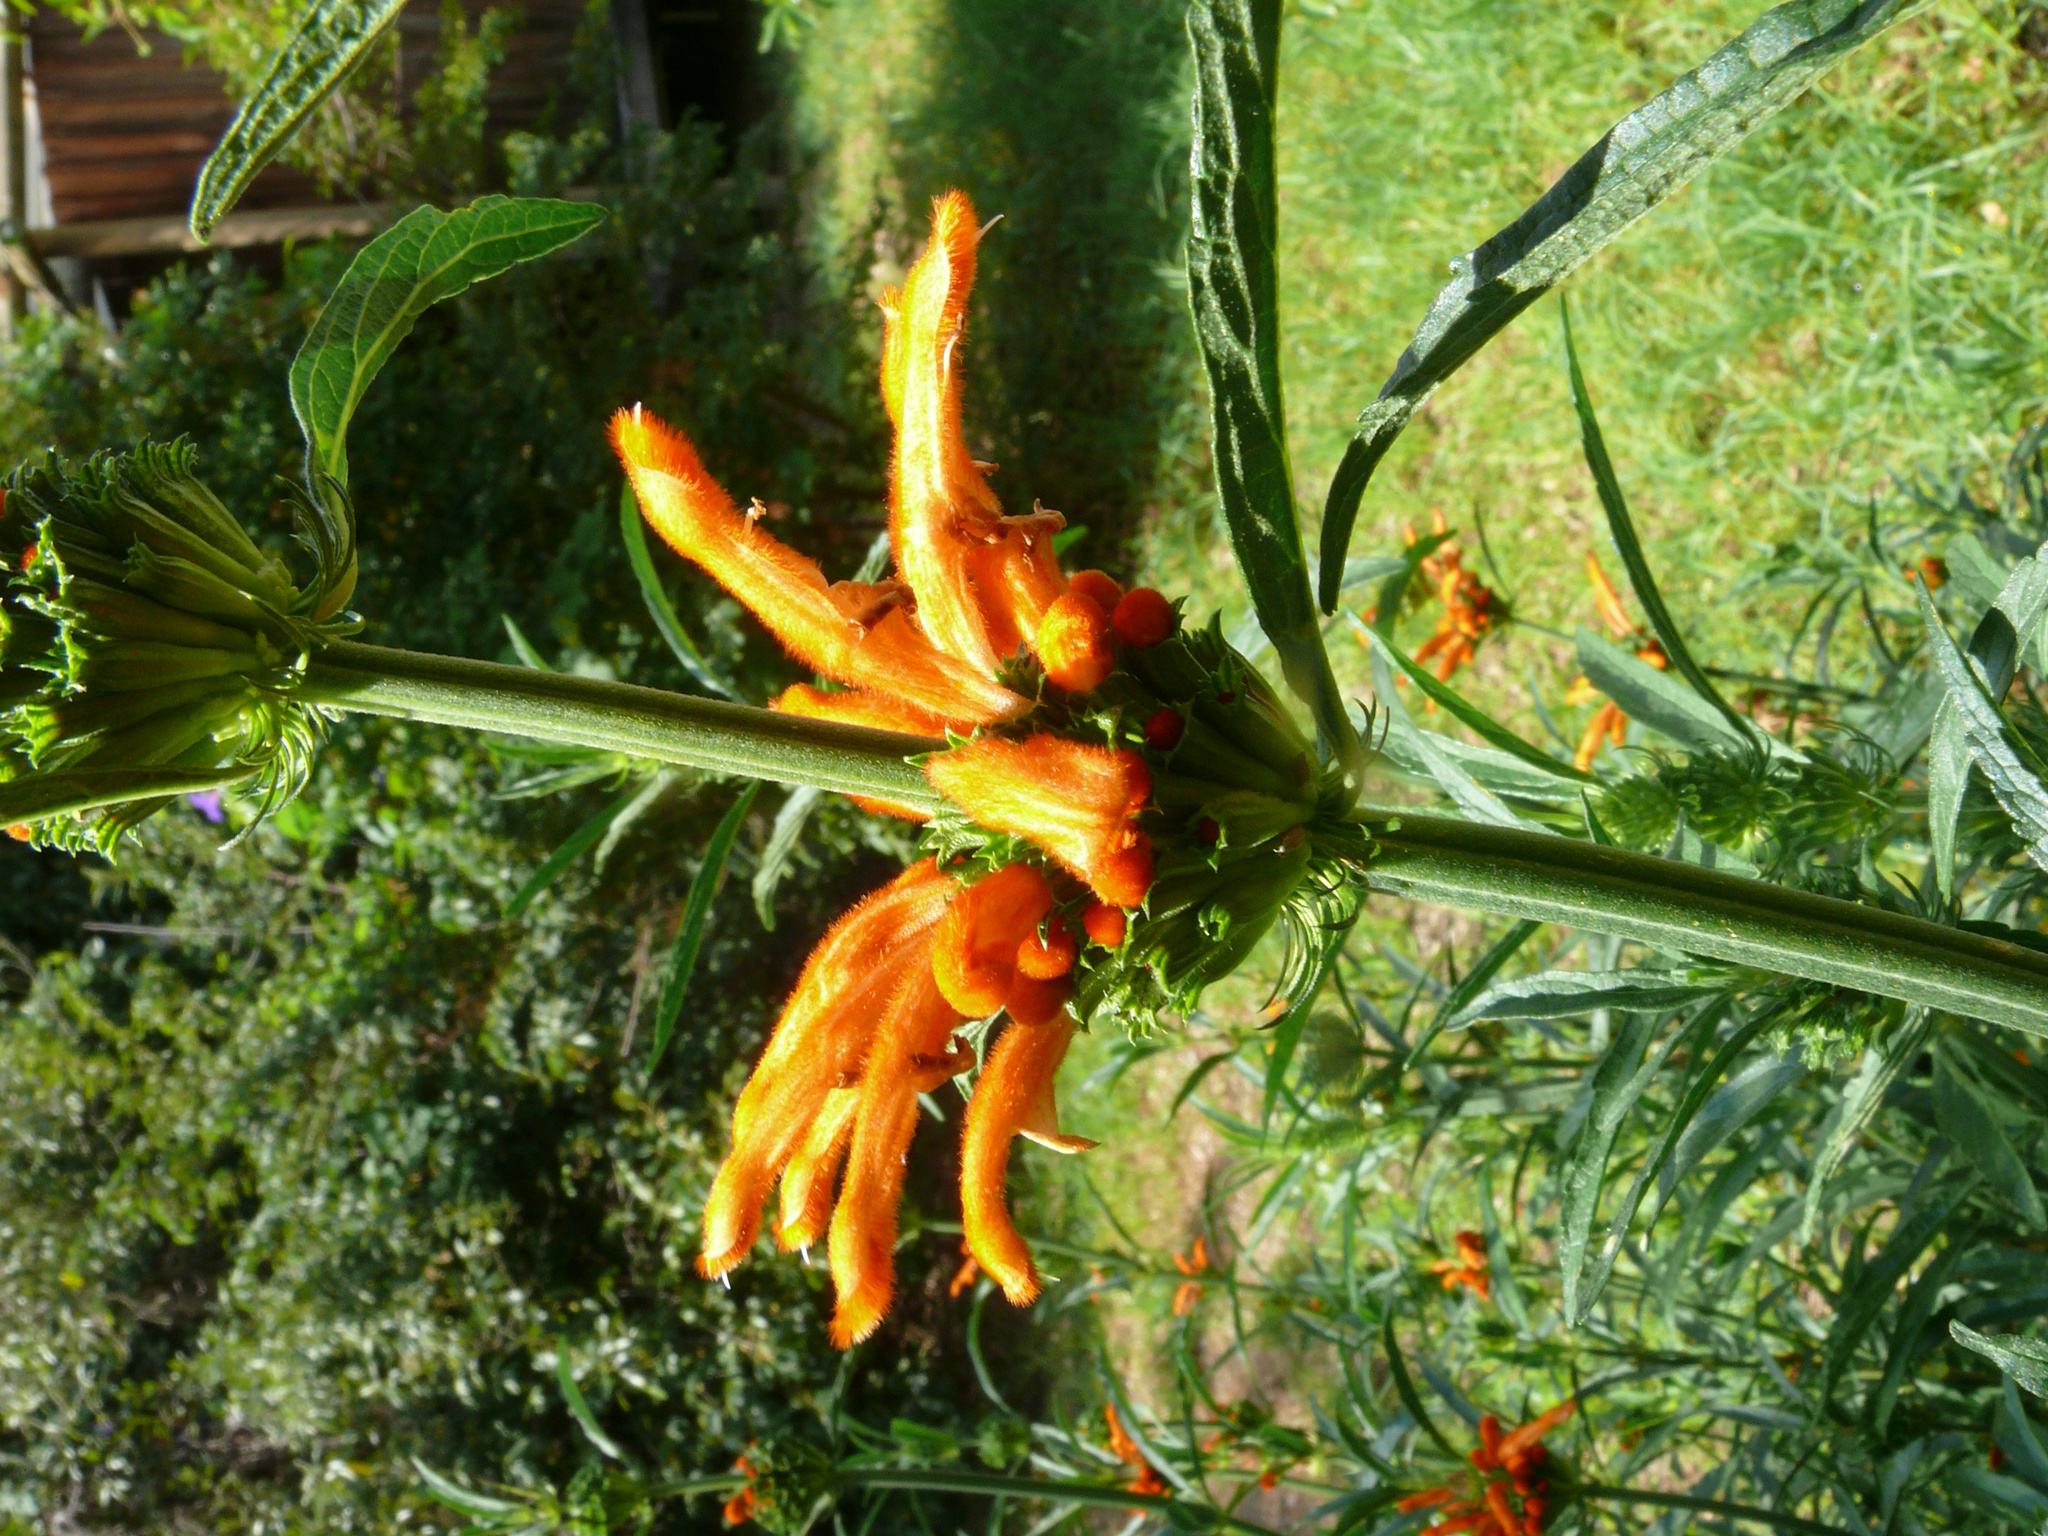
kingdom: Plantae
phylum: Tracheophyta
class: Magnoliopsida
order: Lamiales
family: Lamiaceae
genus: Leonotis
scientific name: Leonotis leonurus
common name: Lion's ear
